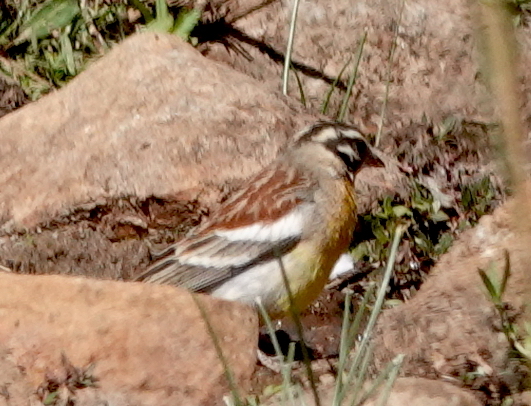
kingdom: Animalia
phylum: Chordata
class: Aves
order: Passeriformes
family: Emberizidae
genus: Emberiza
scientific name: Emberiza flaviventris
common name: Golden-breasted bunting
